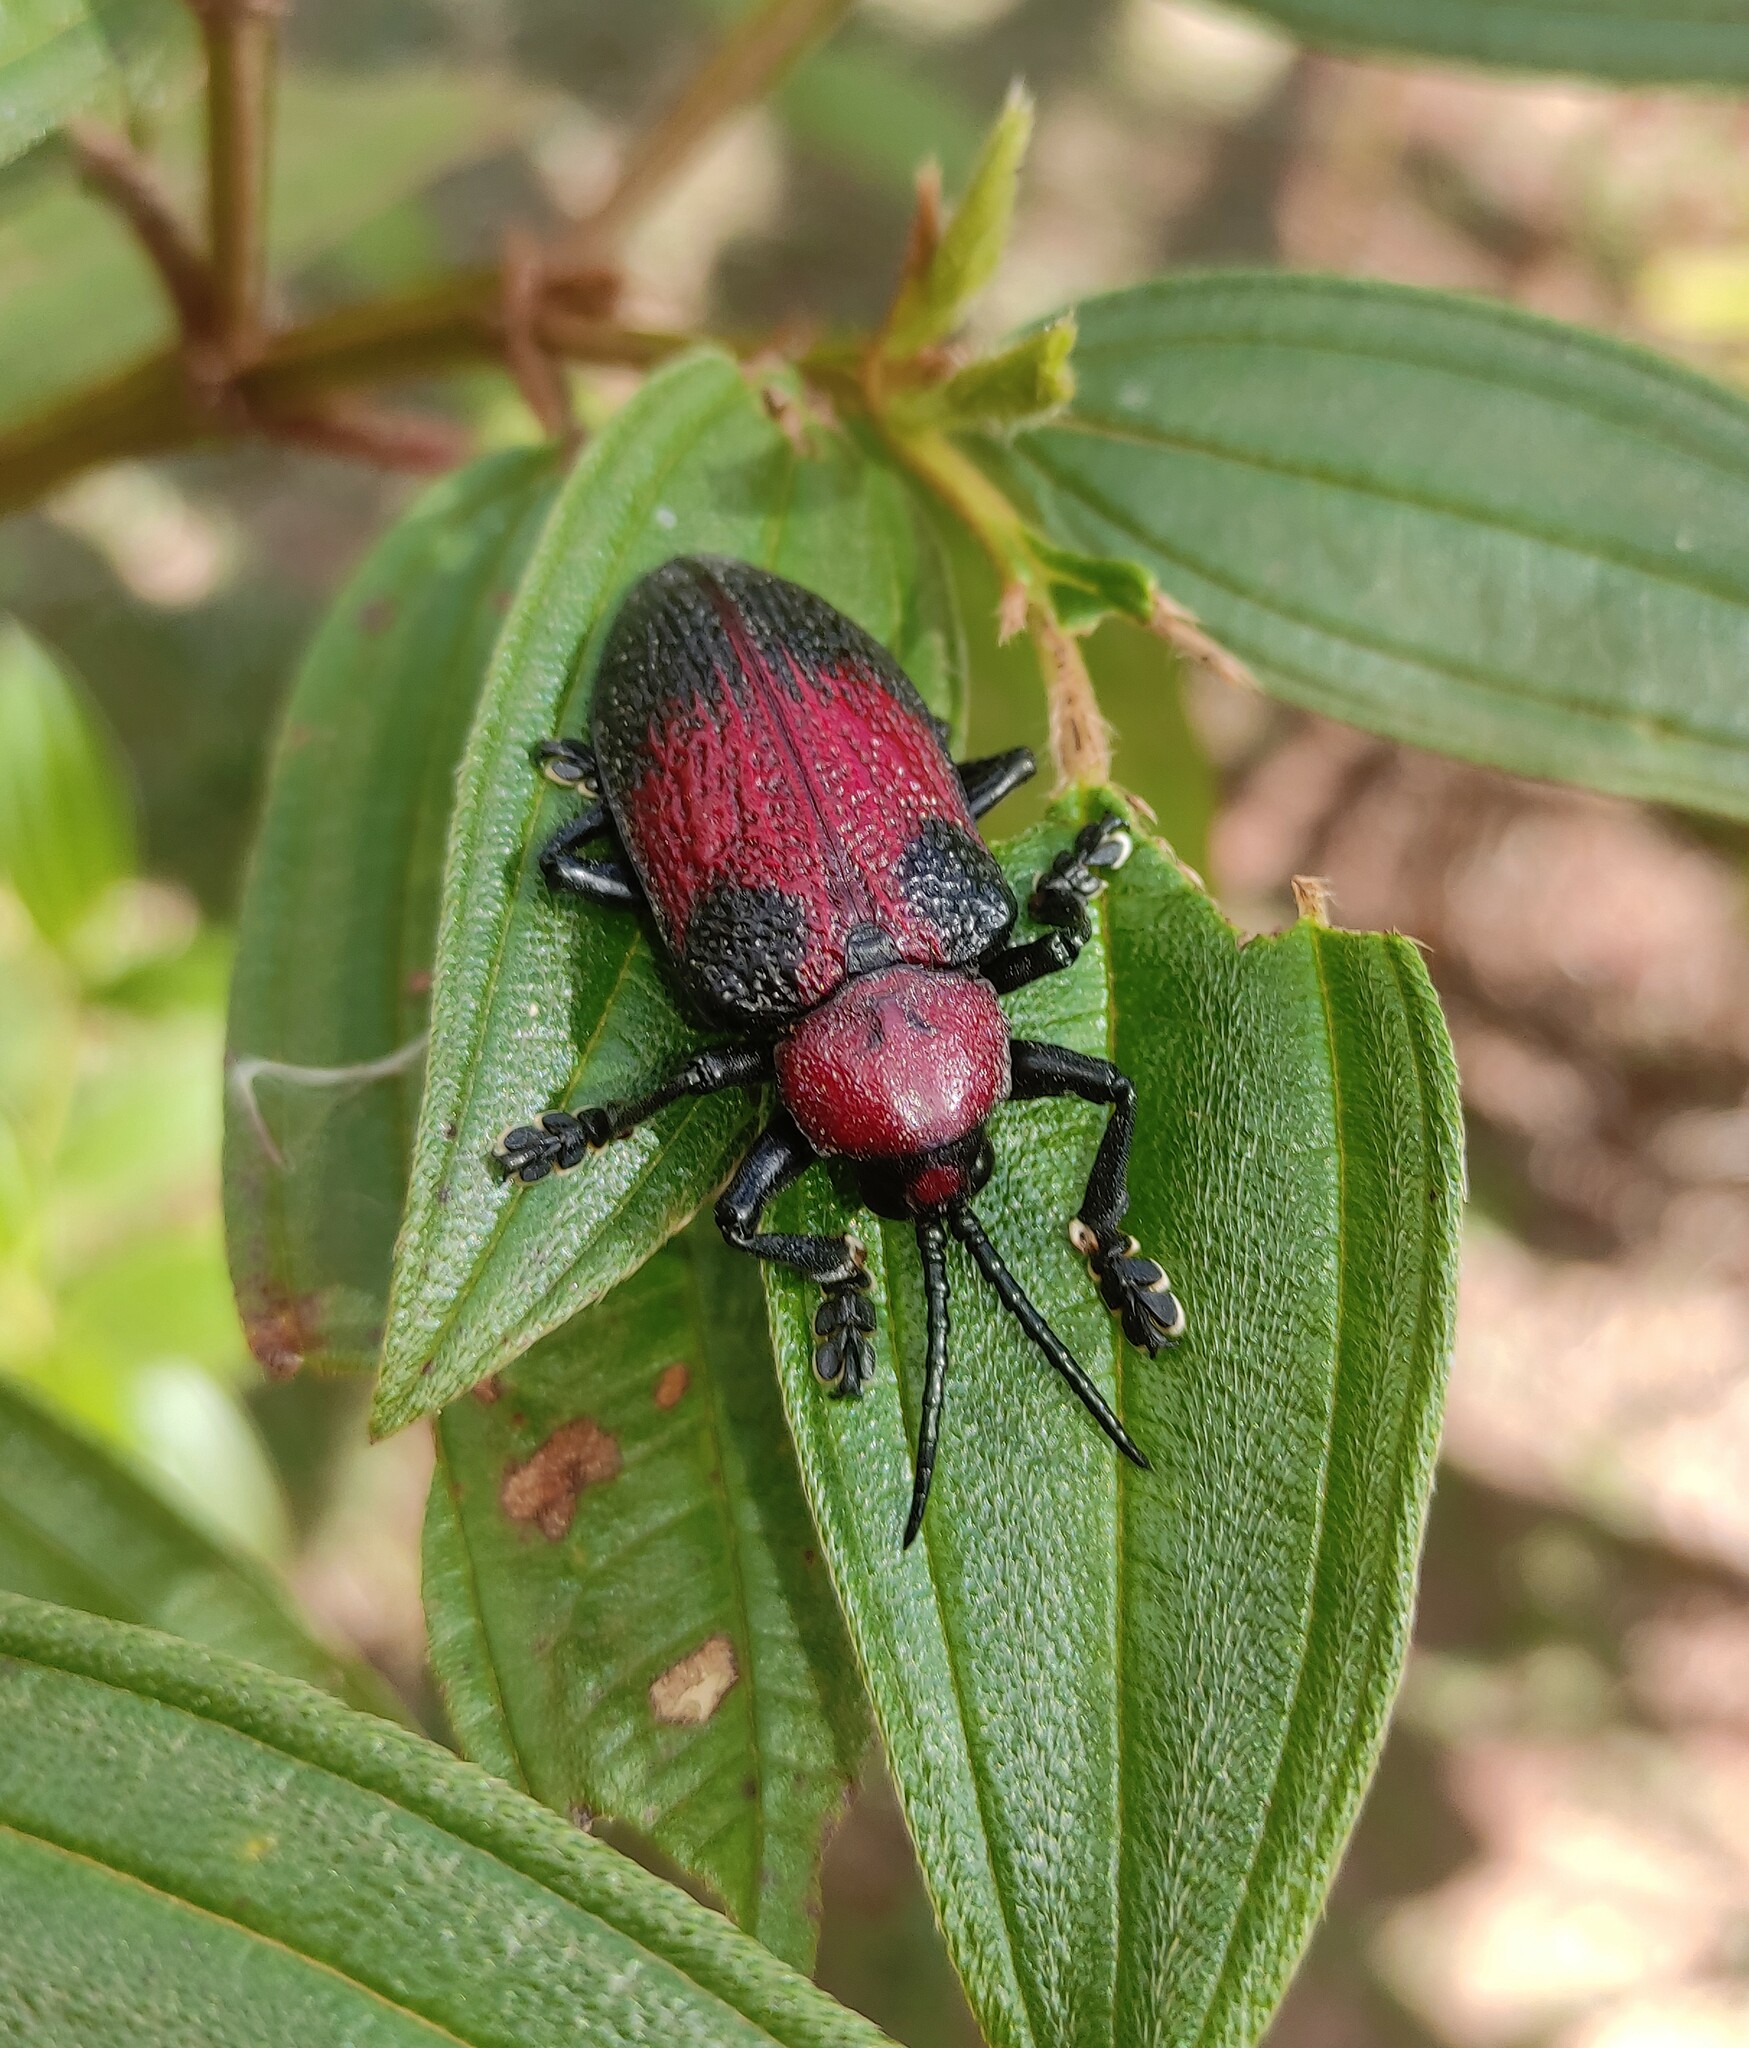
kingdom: Animalia
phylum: Arthropoda
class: Insecta
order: Coleoptera
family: Chrysomelidae
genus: Coraliomela
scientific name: Coraliomela aeneoplagiata
